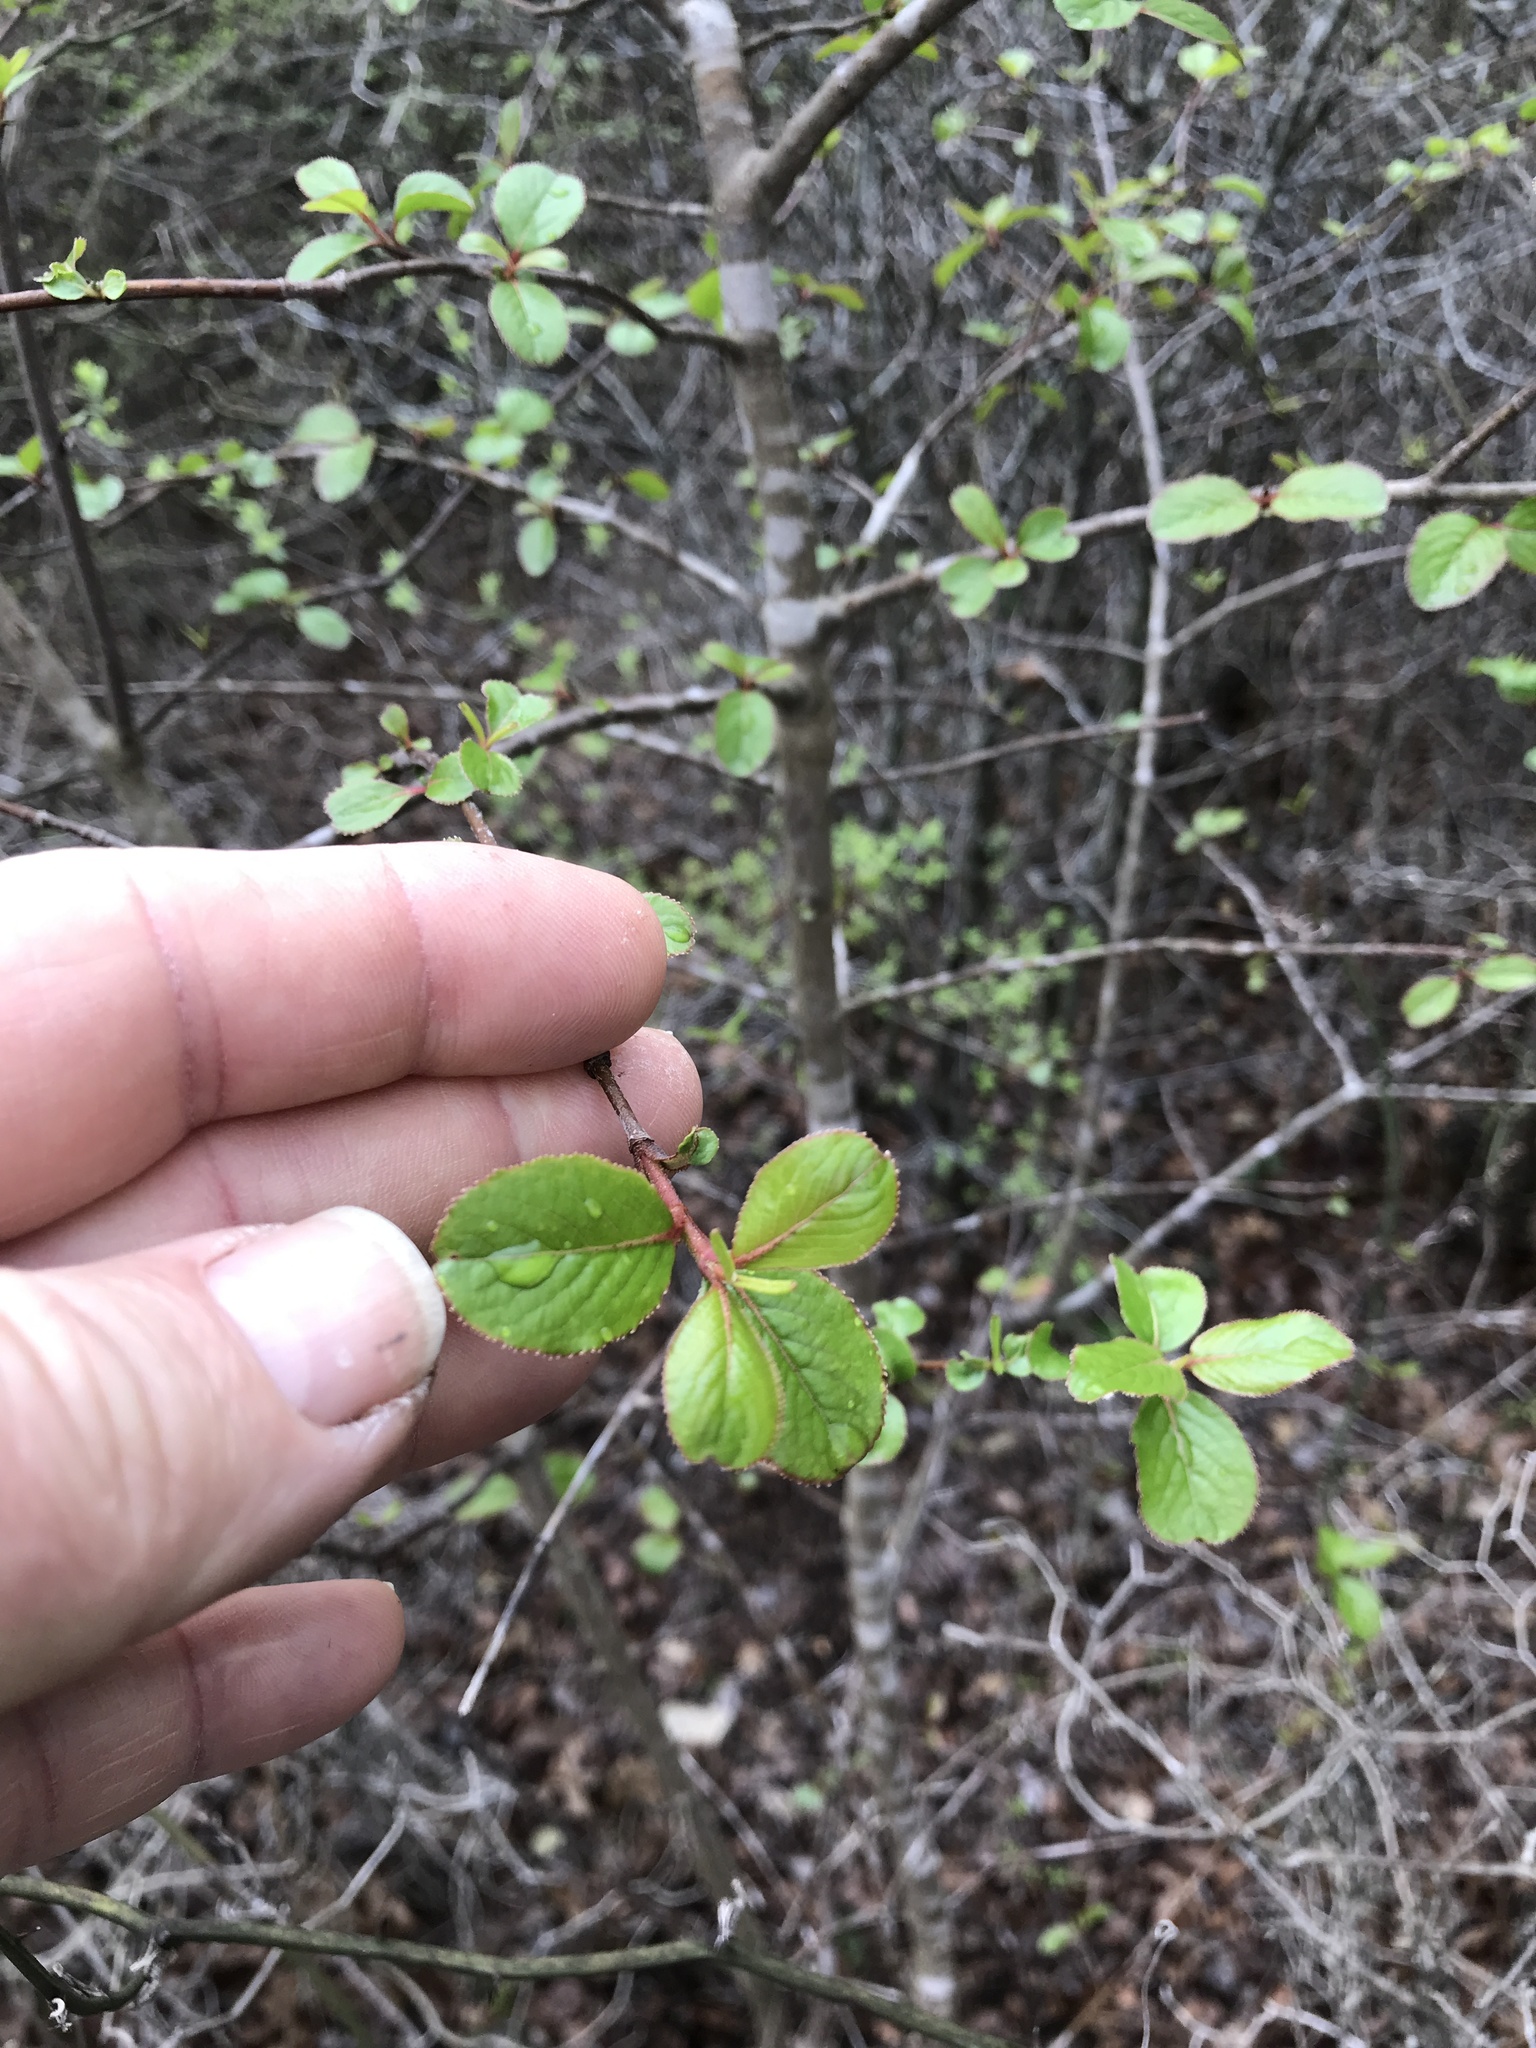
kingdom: Plantae
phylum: Tracheophyta
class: Magnoliopsida
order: Dipsacales
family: Viburnaceae
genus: Viburnum
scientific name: Viburnum rufidulum
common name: Blue haw
